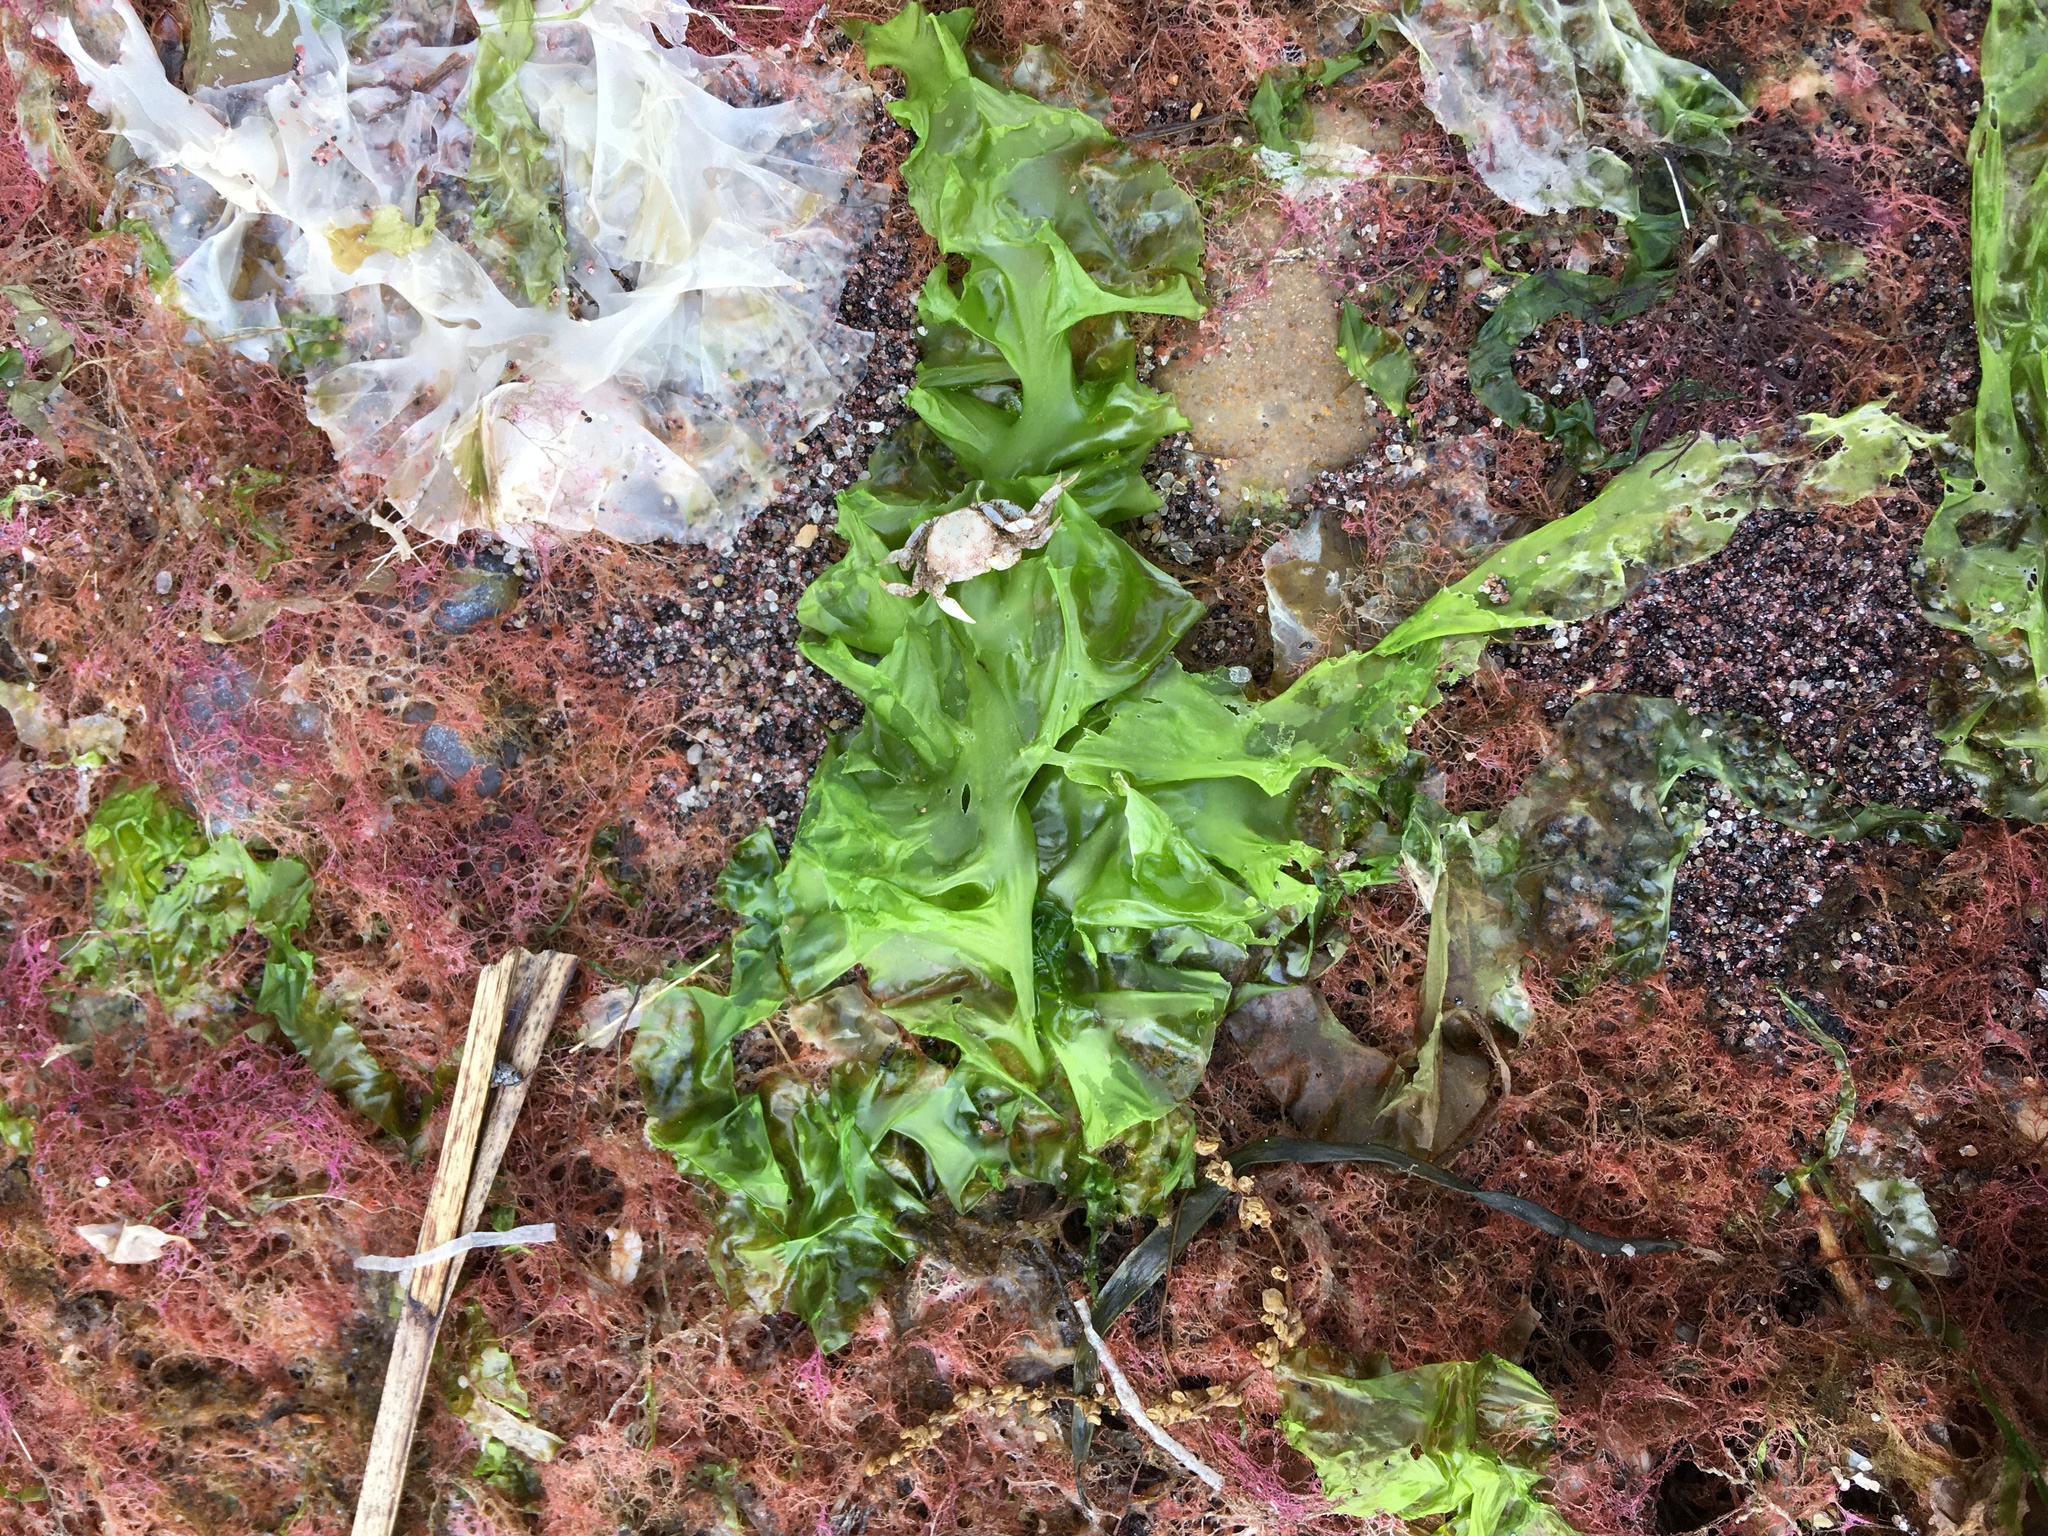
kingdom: Plantae
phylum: Chlorophyta
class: Ulvophyceae
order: Ulvales
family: Ulvaceae
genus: Ulva
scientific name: Ulva lactuca
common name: Sea lettuce
